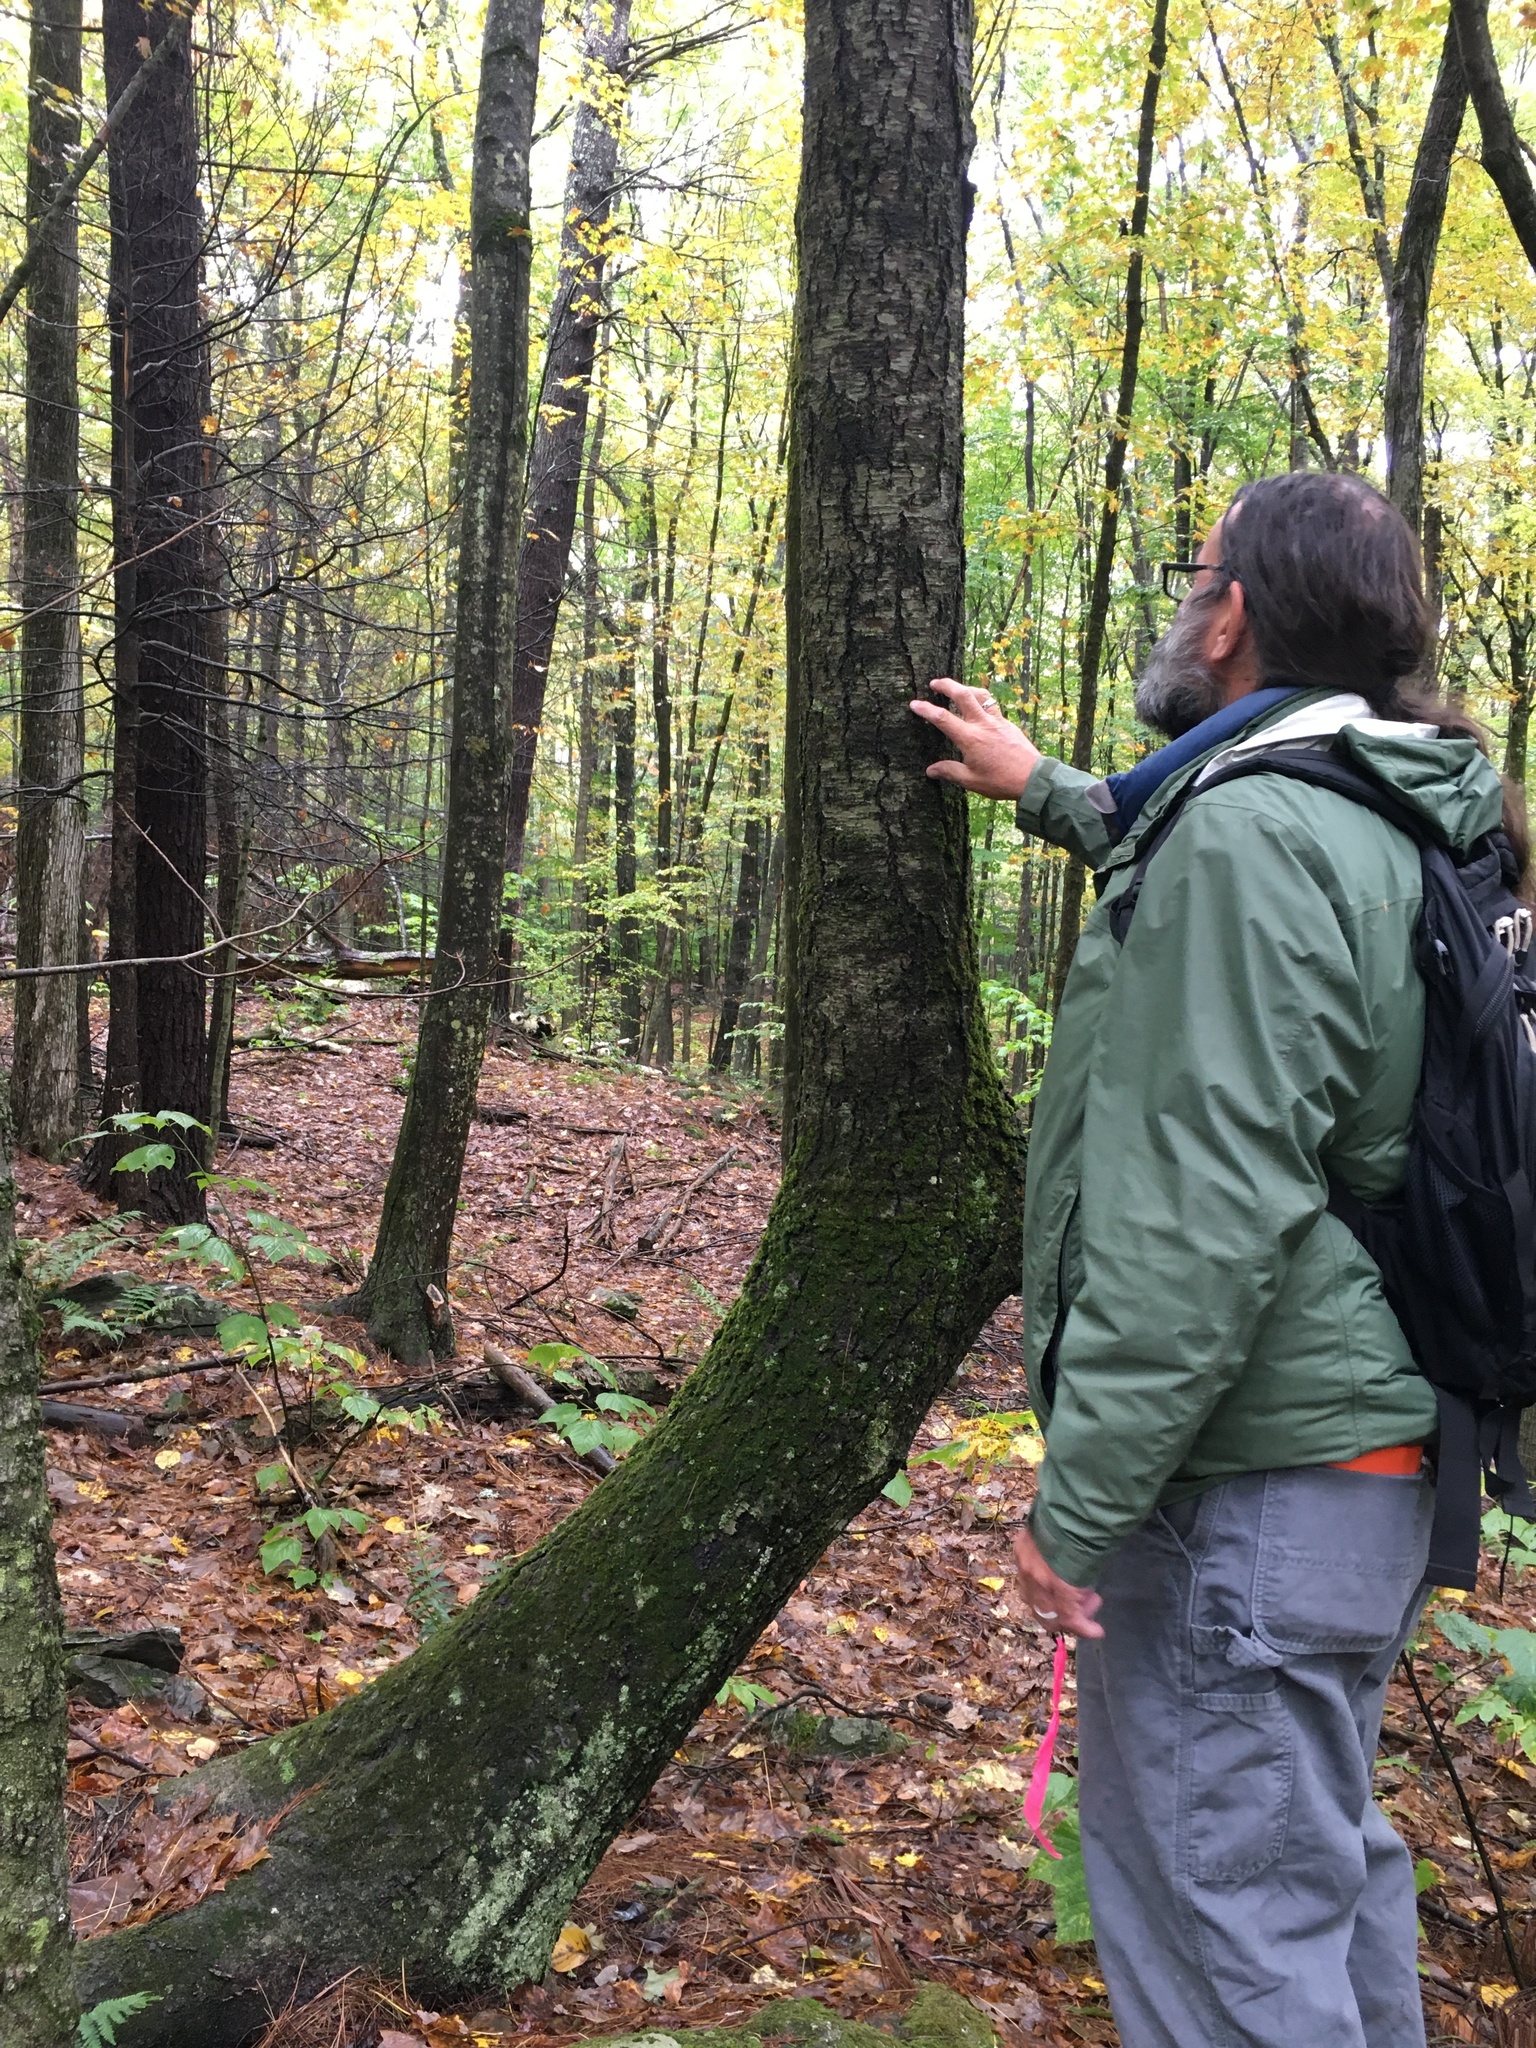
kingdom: Plantae
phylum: Tracheophyta
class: Magnoliopsida
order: Fagales
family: Betulaceae
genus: Betula
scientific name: Betula lenta
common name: Black birch
